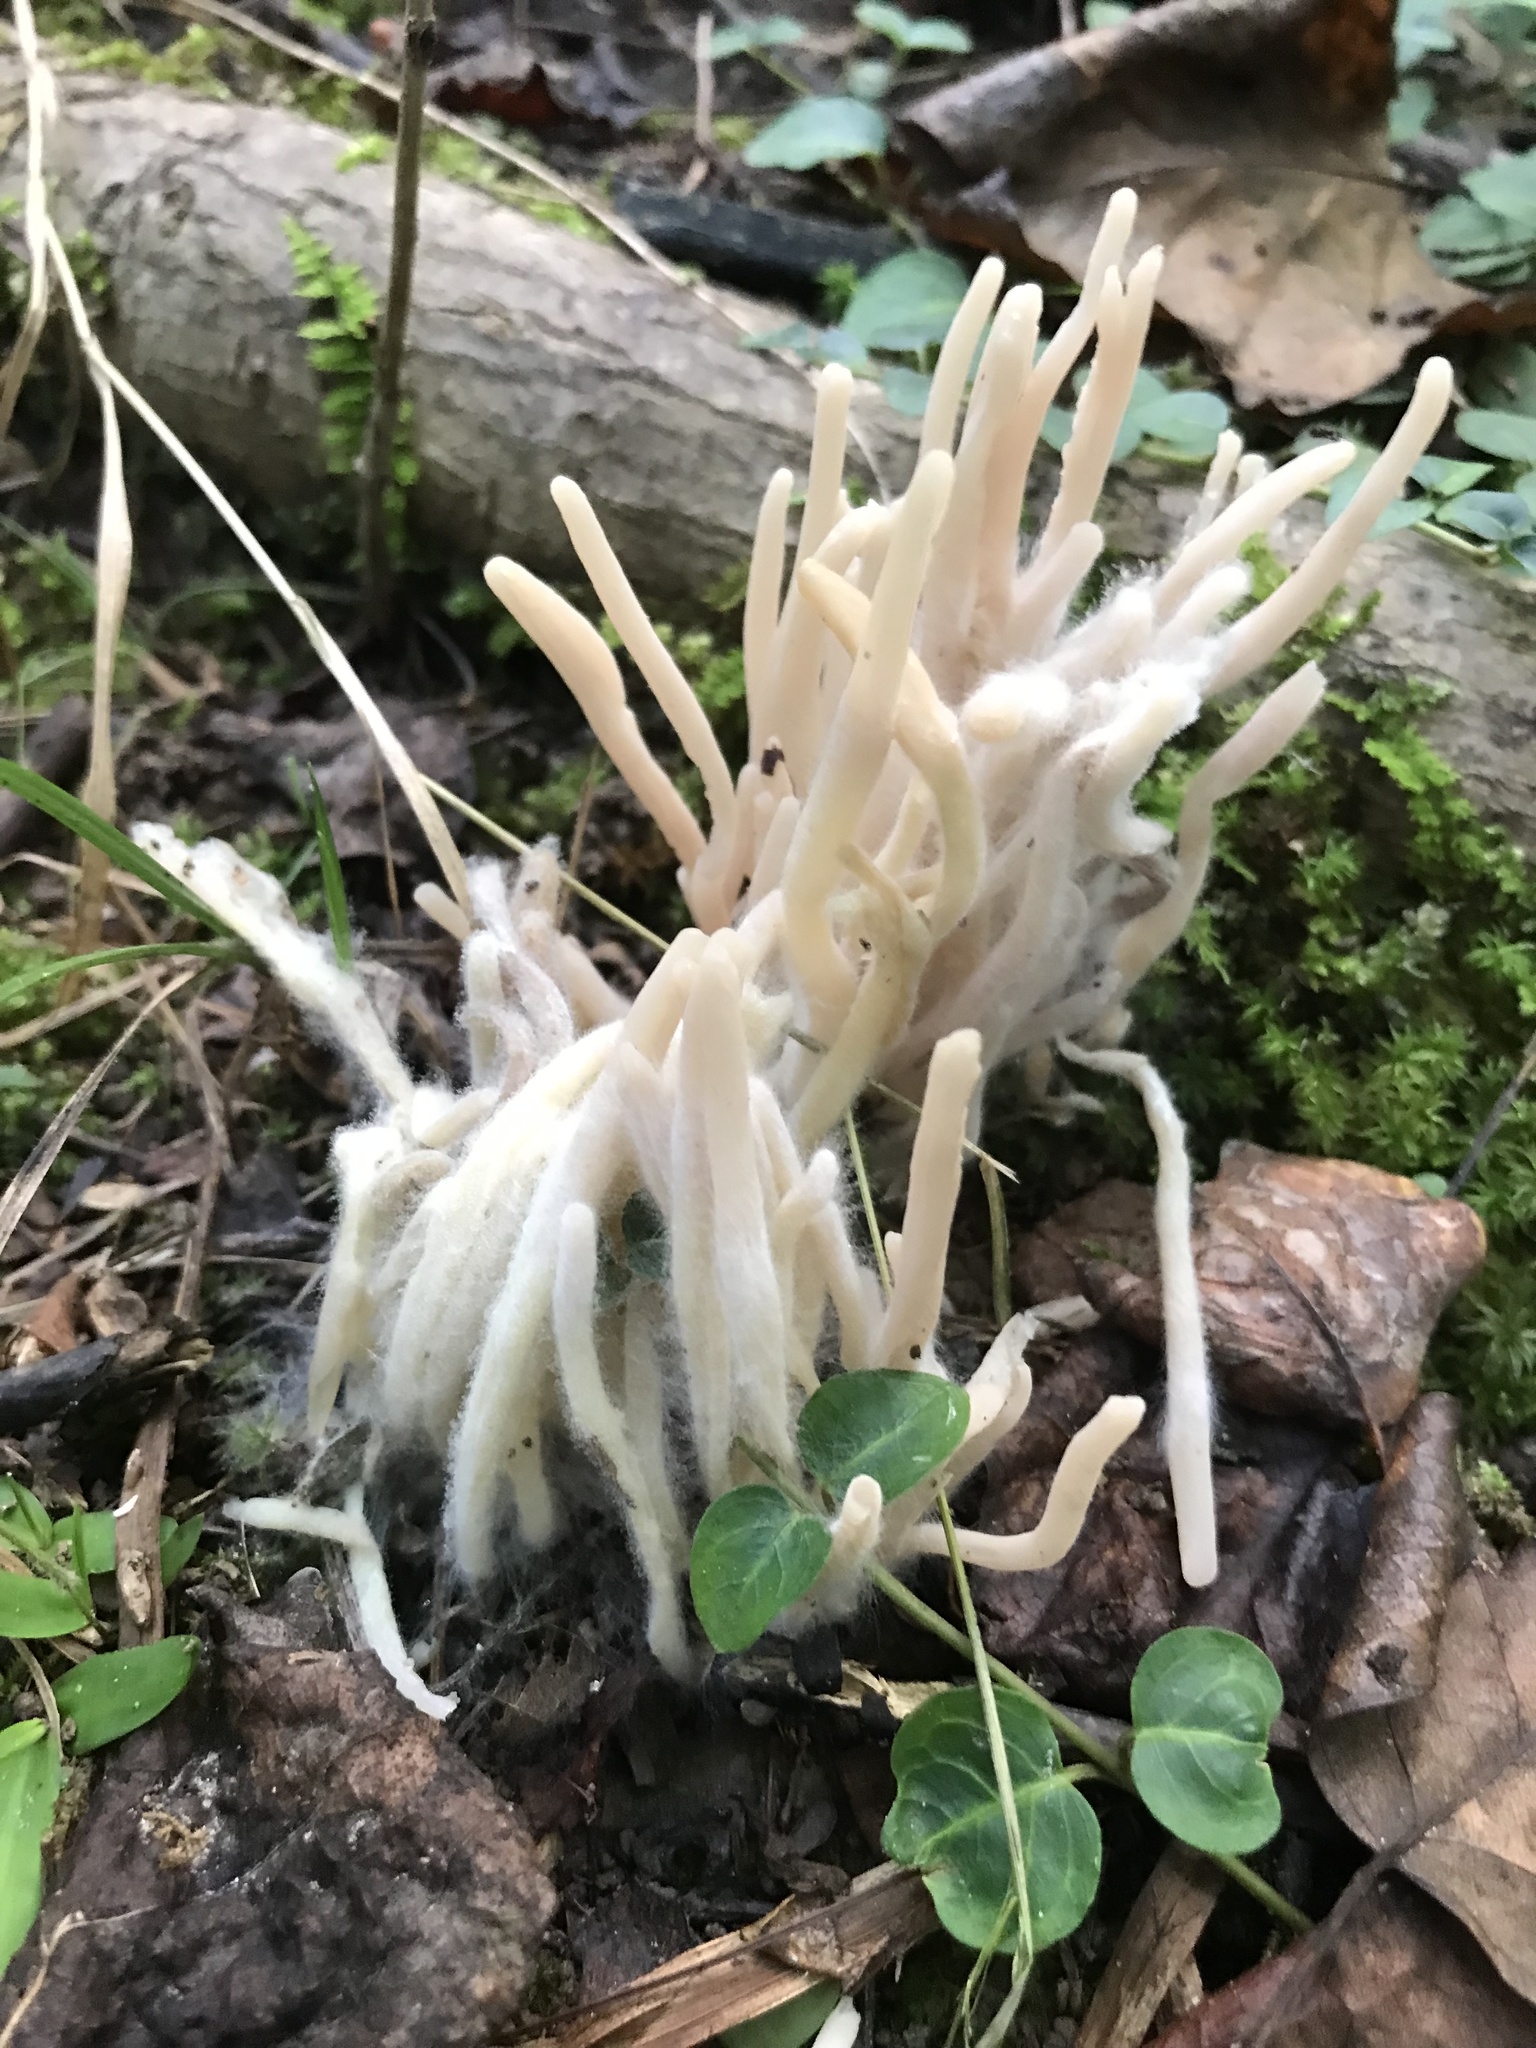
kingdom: Fungi
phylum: Basidiomycota
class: Agaricomycetes
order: Agaricales
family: Clavariaceae
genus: Clavaria
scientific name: Clavaria fragilis
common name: White spindles
